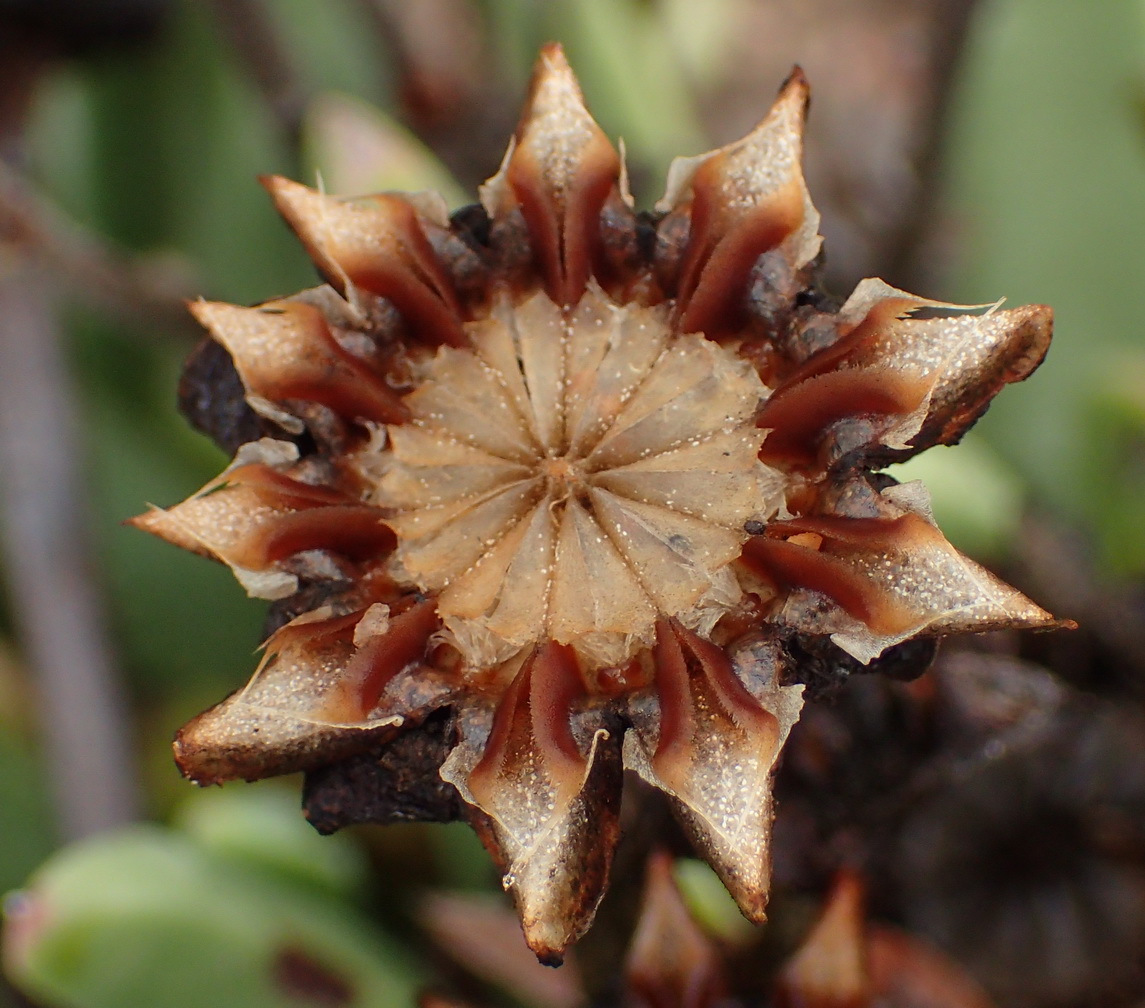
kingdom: Plantae
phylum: Tracheophyta
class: Magnoliopsida
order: Caryophyllales
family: Aizoaceae
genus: Machairophyllum
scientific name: Machairophyllum albidum
